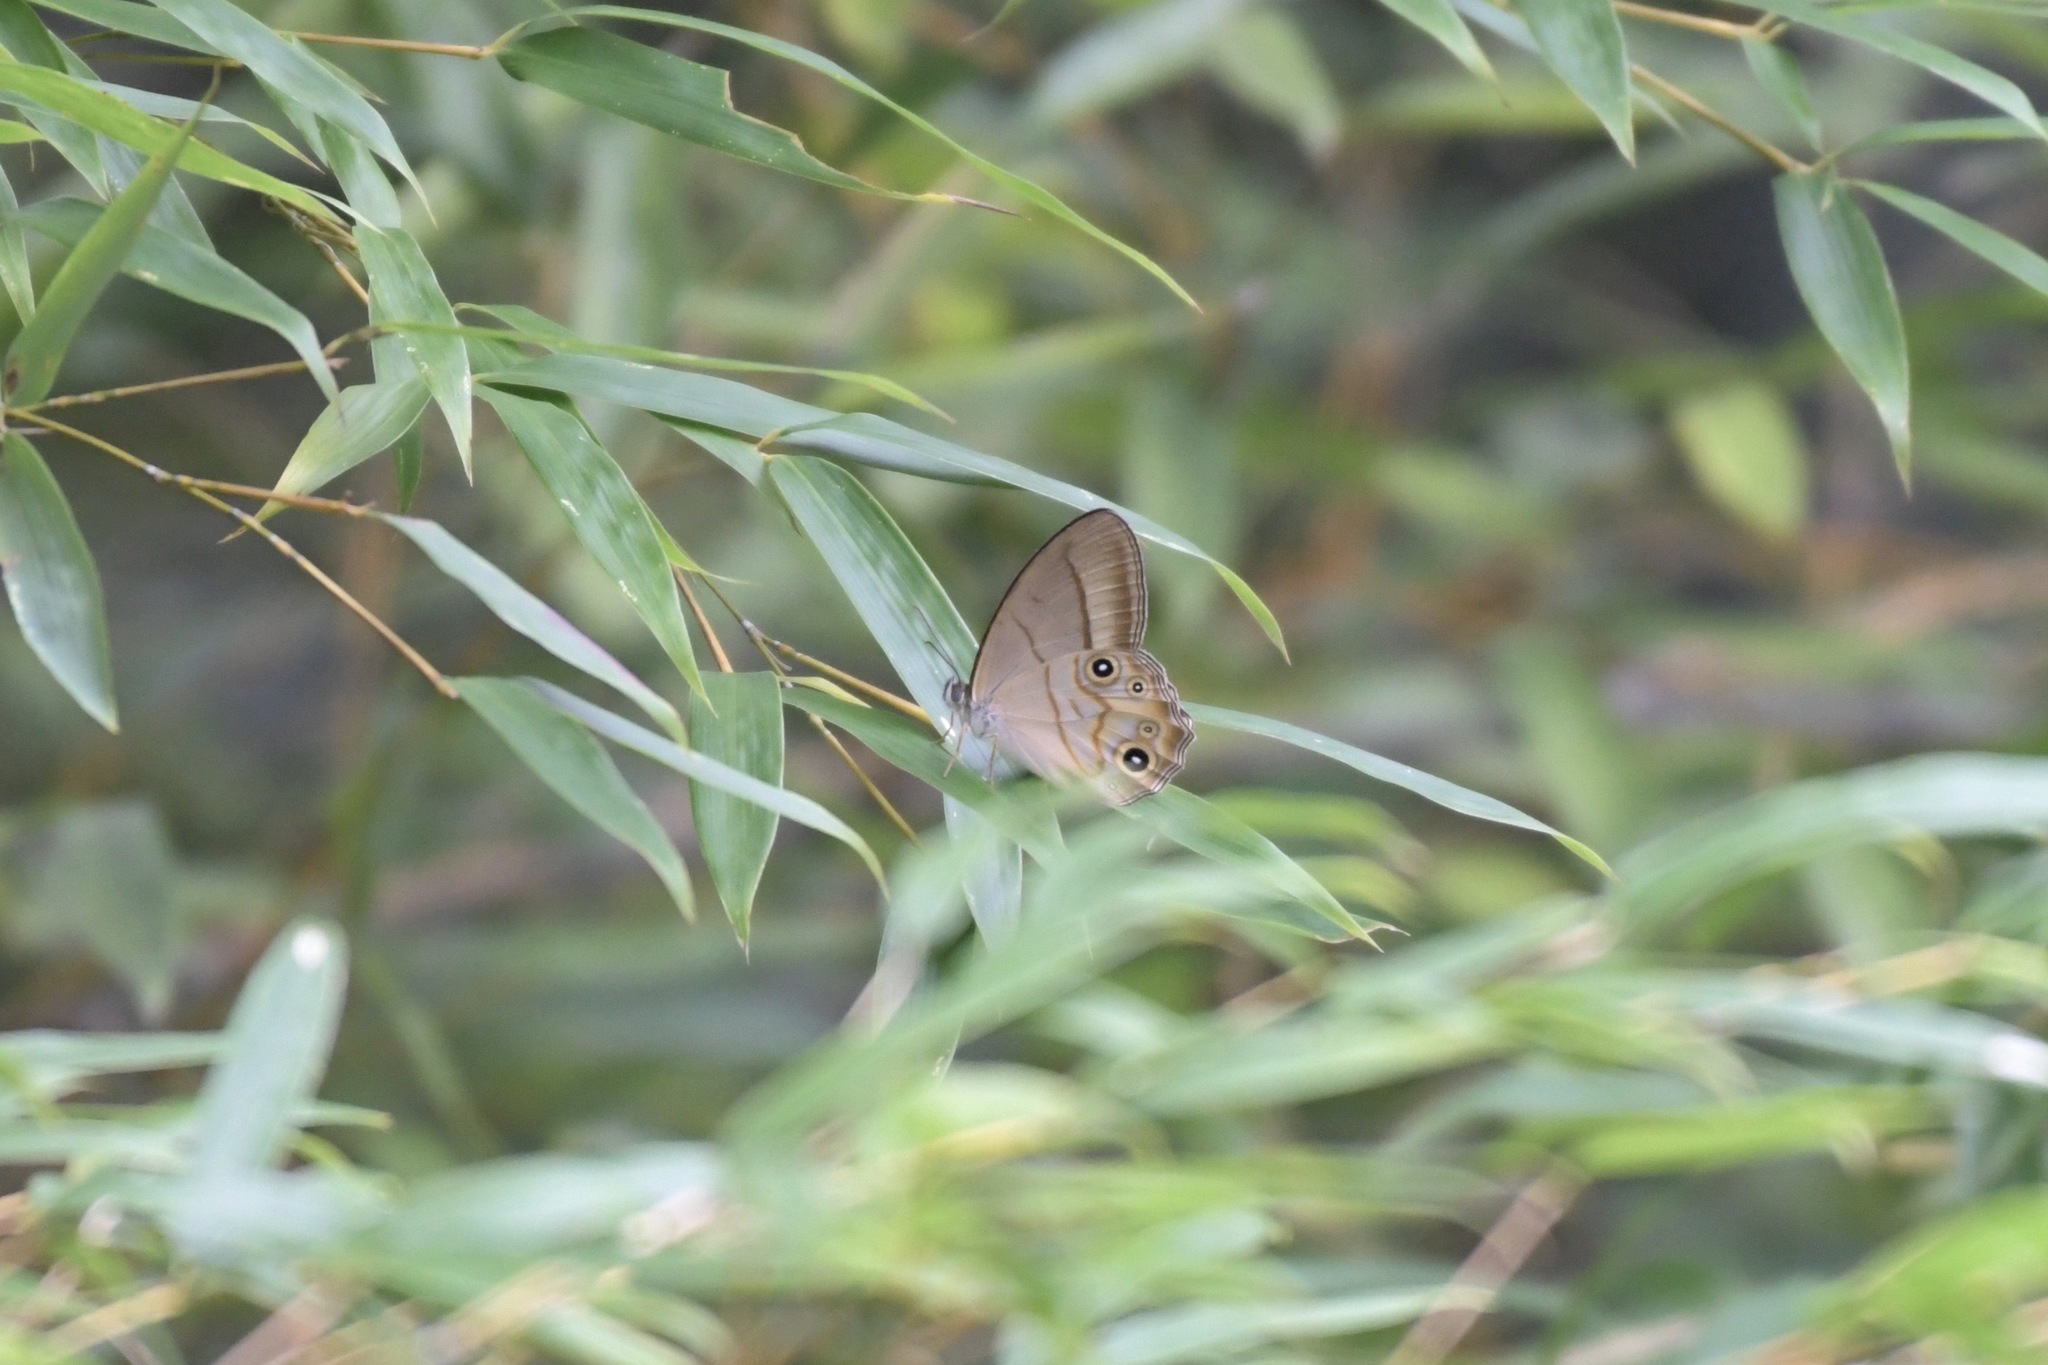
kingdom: Animalia
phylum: Arthropoda
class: Insecta
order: Lepidoptera
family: Nymphalidae
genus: Lethe
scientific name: Lethe syrcis
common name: Yellow forester
